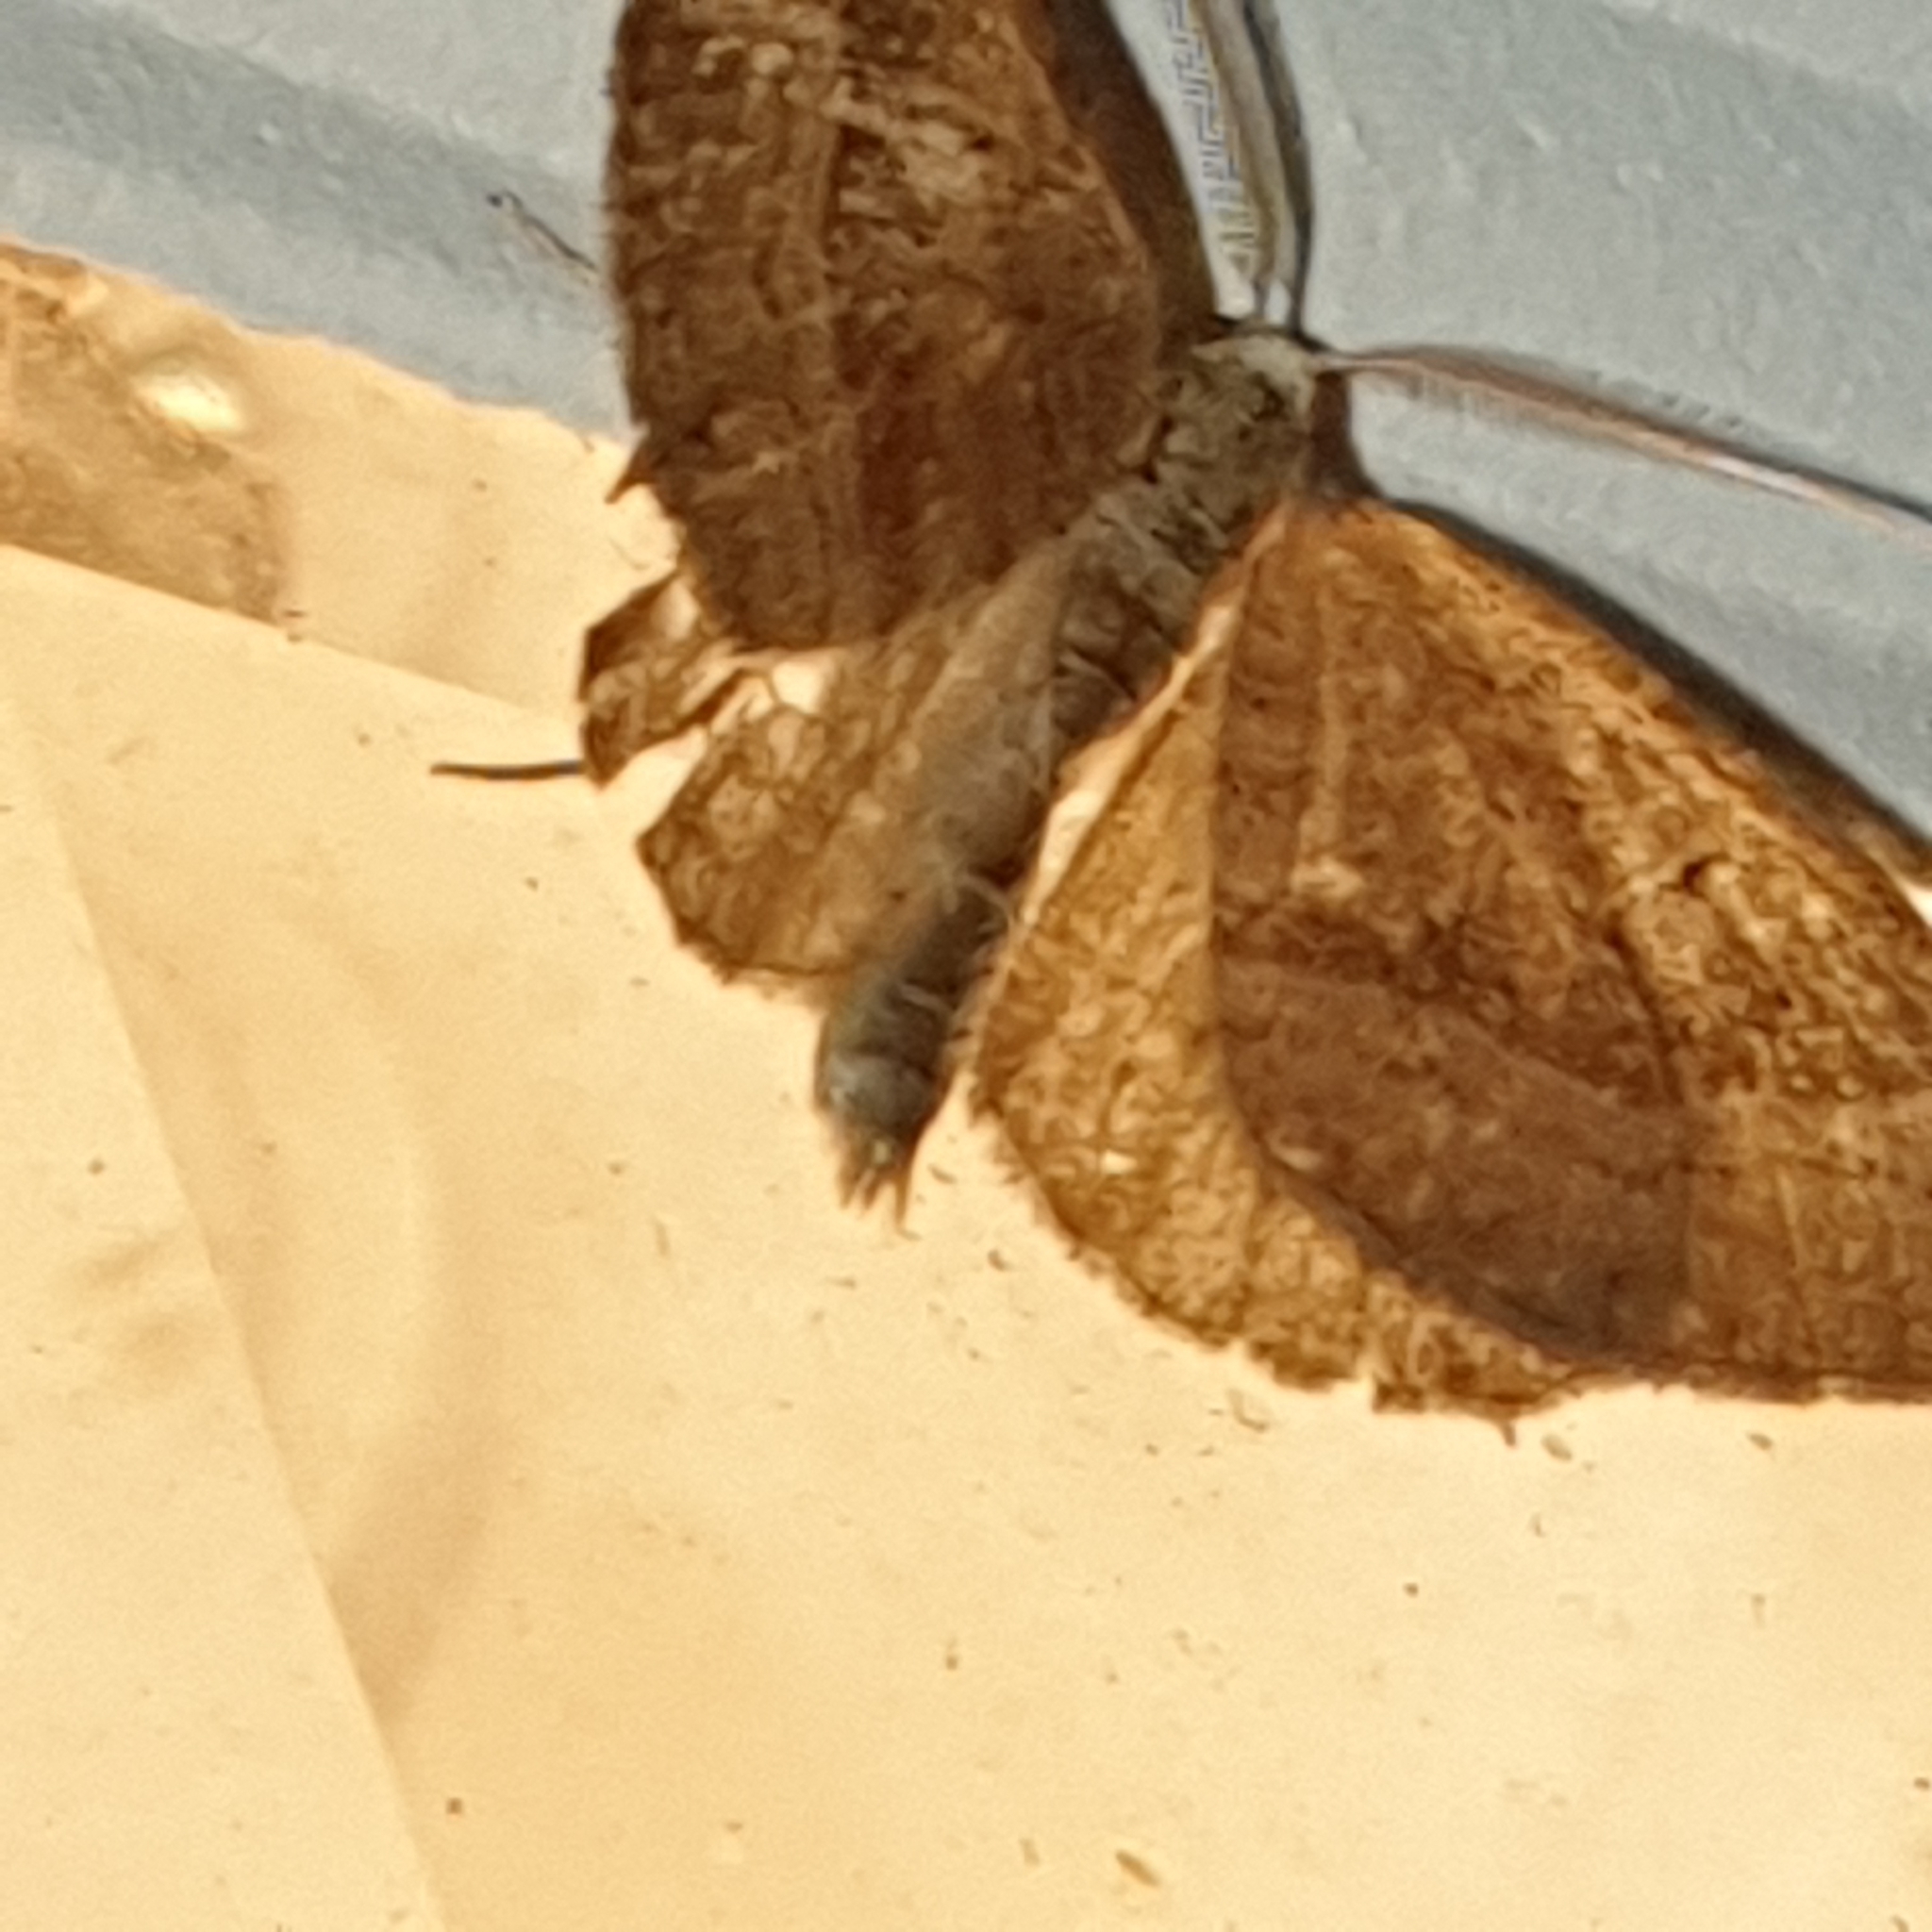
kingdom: Animalia
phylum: Arthropoda
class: Insecta
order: Lepidoptera
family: Geometridae
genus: Scotopteryx
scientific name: Scotopteryx chenopodiata
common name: Shaded broad-bar
